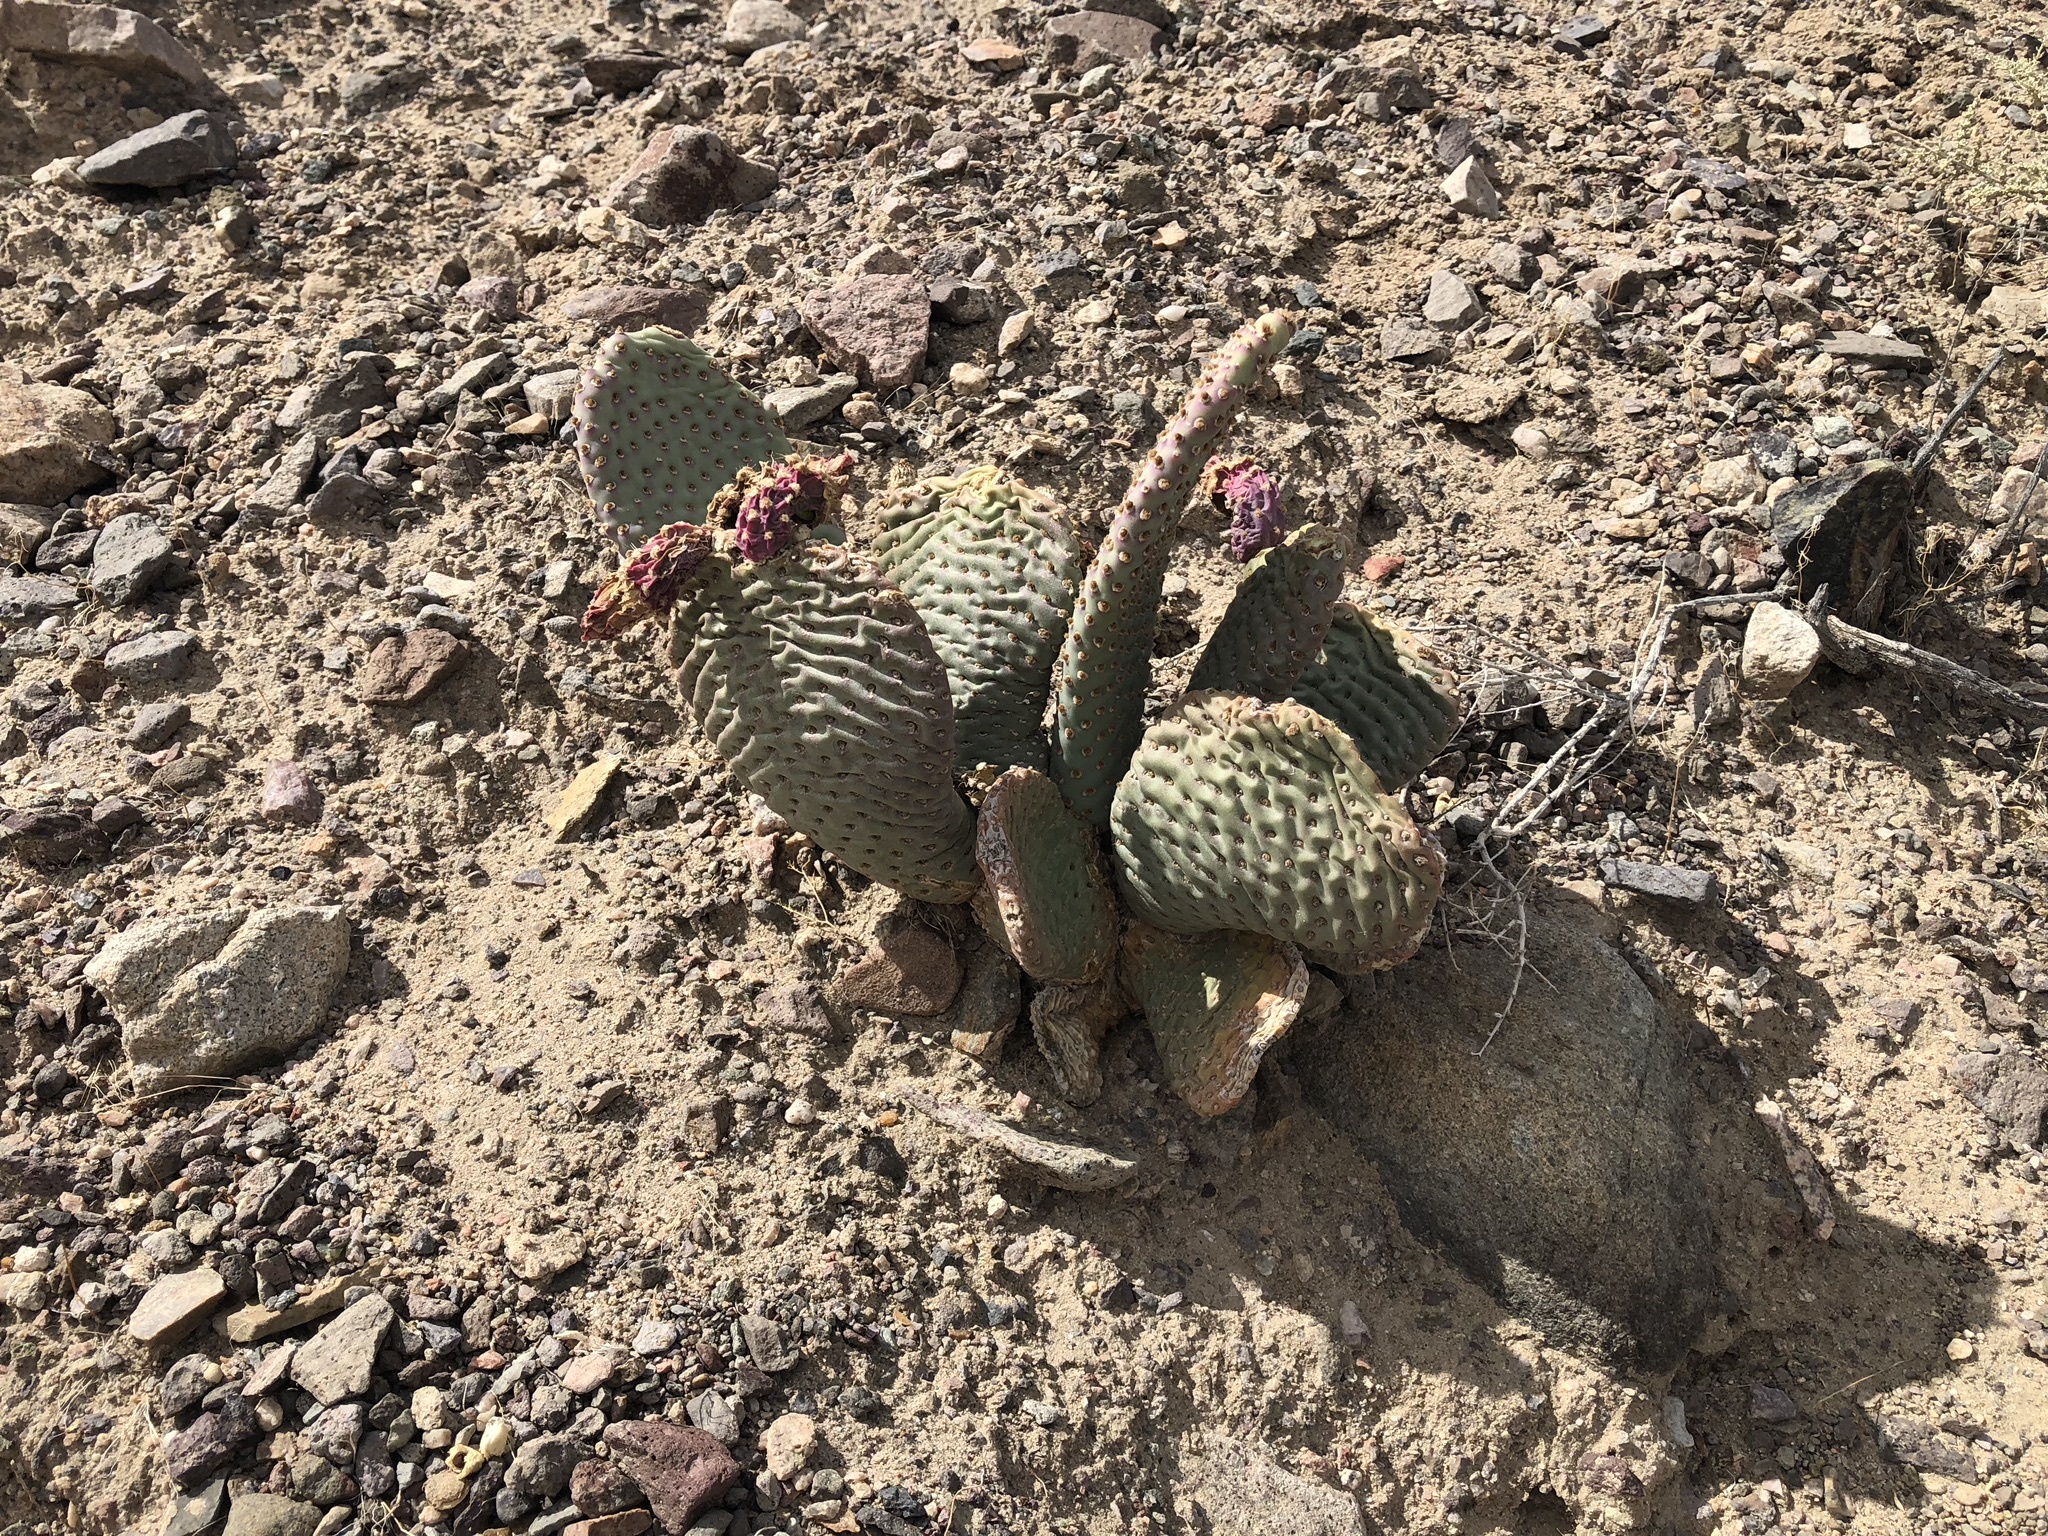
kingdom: Plantae
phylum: Tracheophyta
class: Magnoliopsida
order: Caryophyllales
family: Cactaceae
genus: Opuntia
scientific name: Opuntia basilaris
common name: Beavertail prickly-pear
